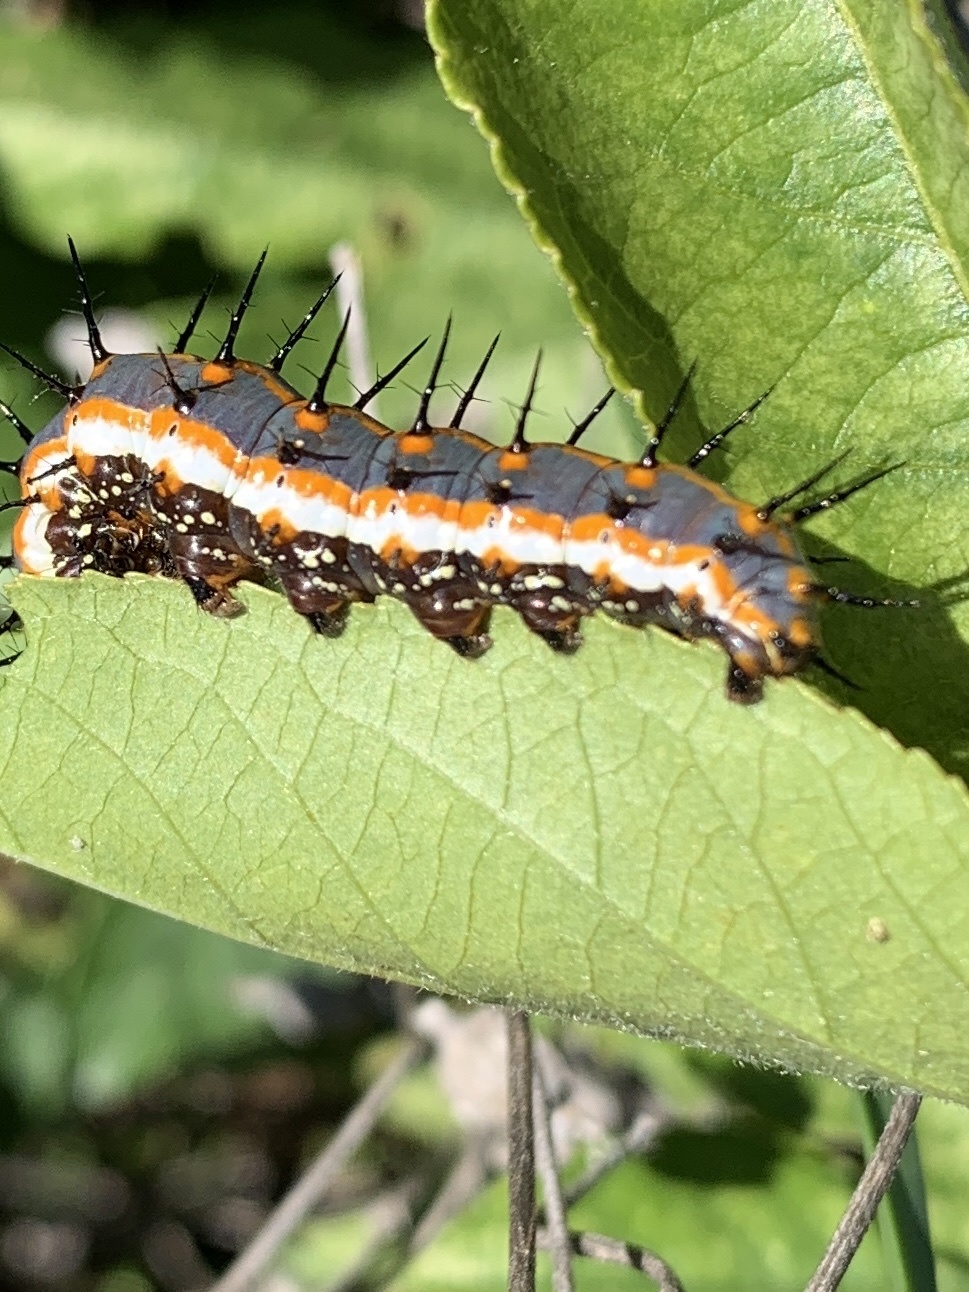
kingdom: Animalia
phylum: Arthropoda
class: Insecta
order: Lepidoptera
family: Nymphalidae
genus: Dione
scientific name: Dione vanillae
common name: Gulf fritillary
